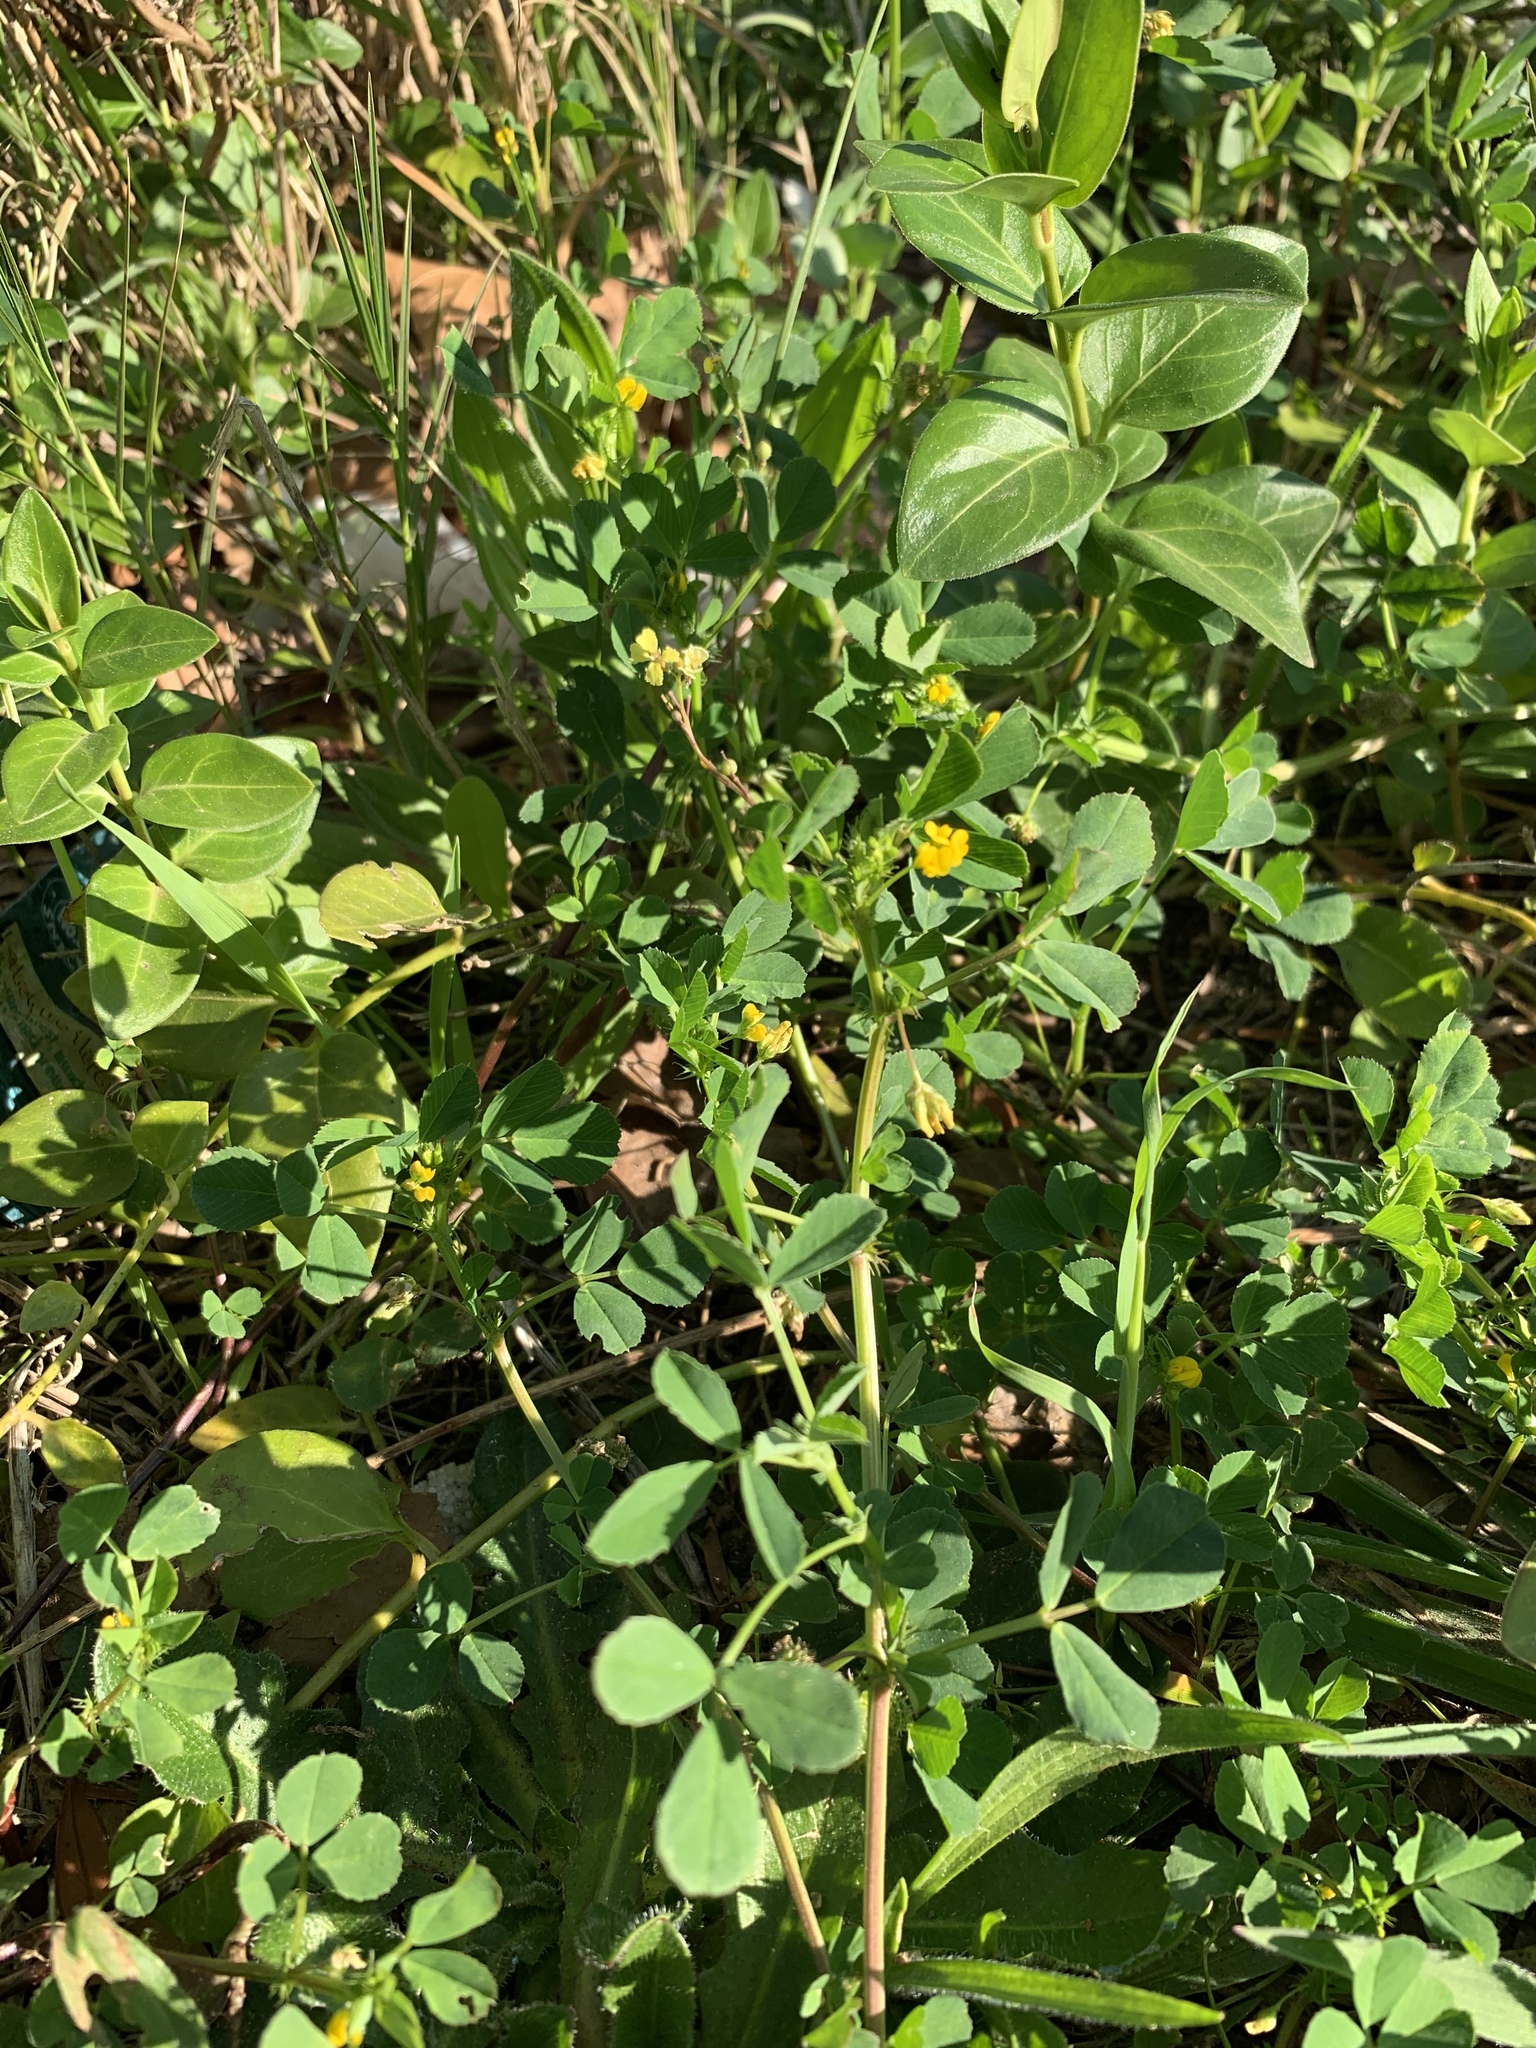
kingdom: Plantae
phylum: Tracheophyta
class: Magnoliopsida
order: Fabales
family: Fabaceae
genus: Medicago
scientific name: Medicago polymorpha
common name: Burclover
